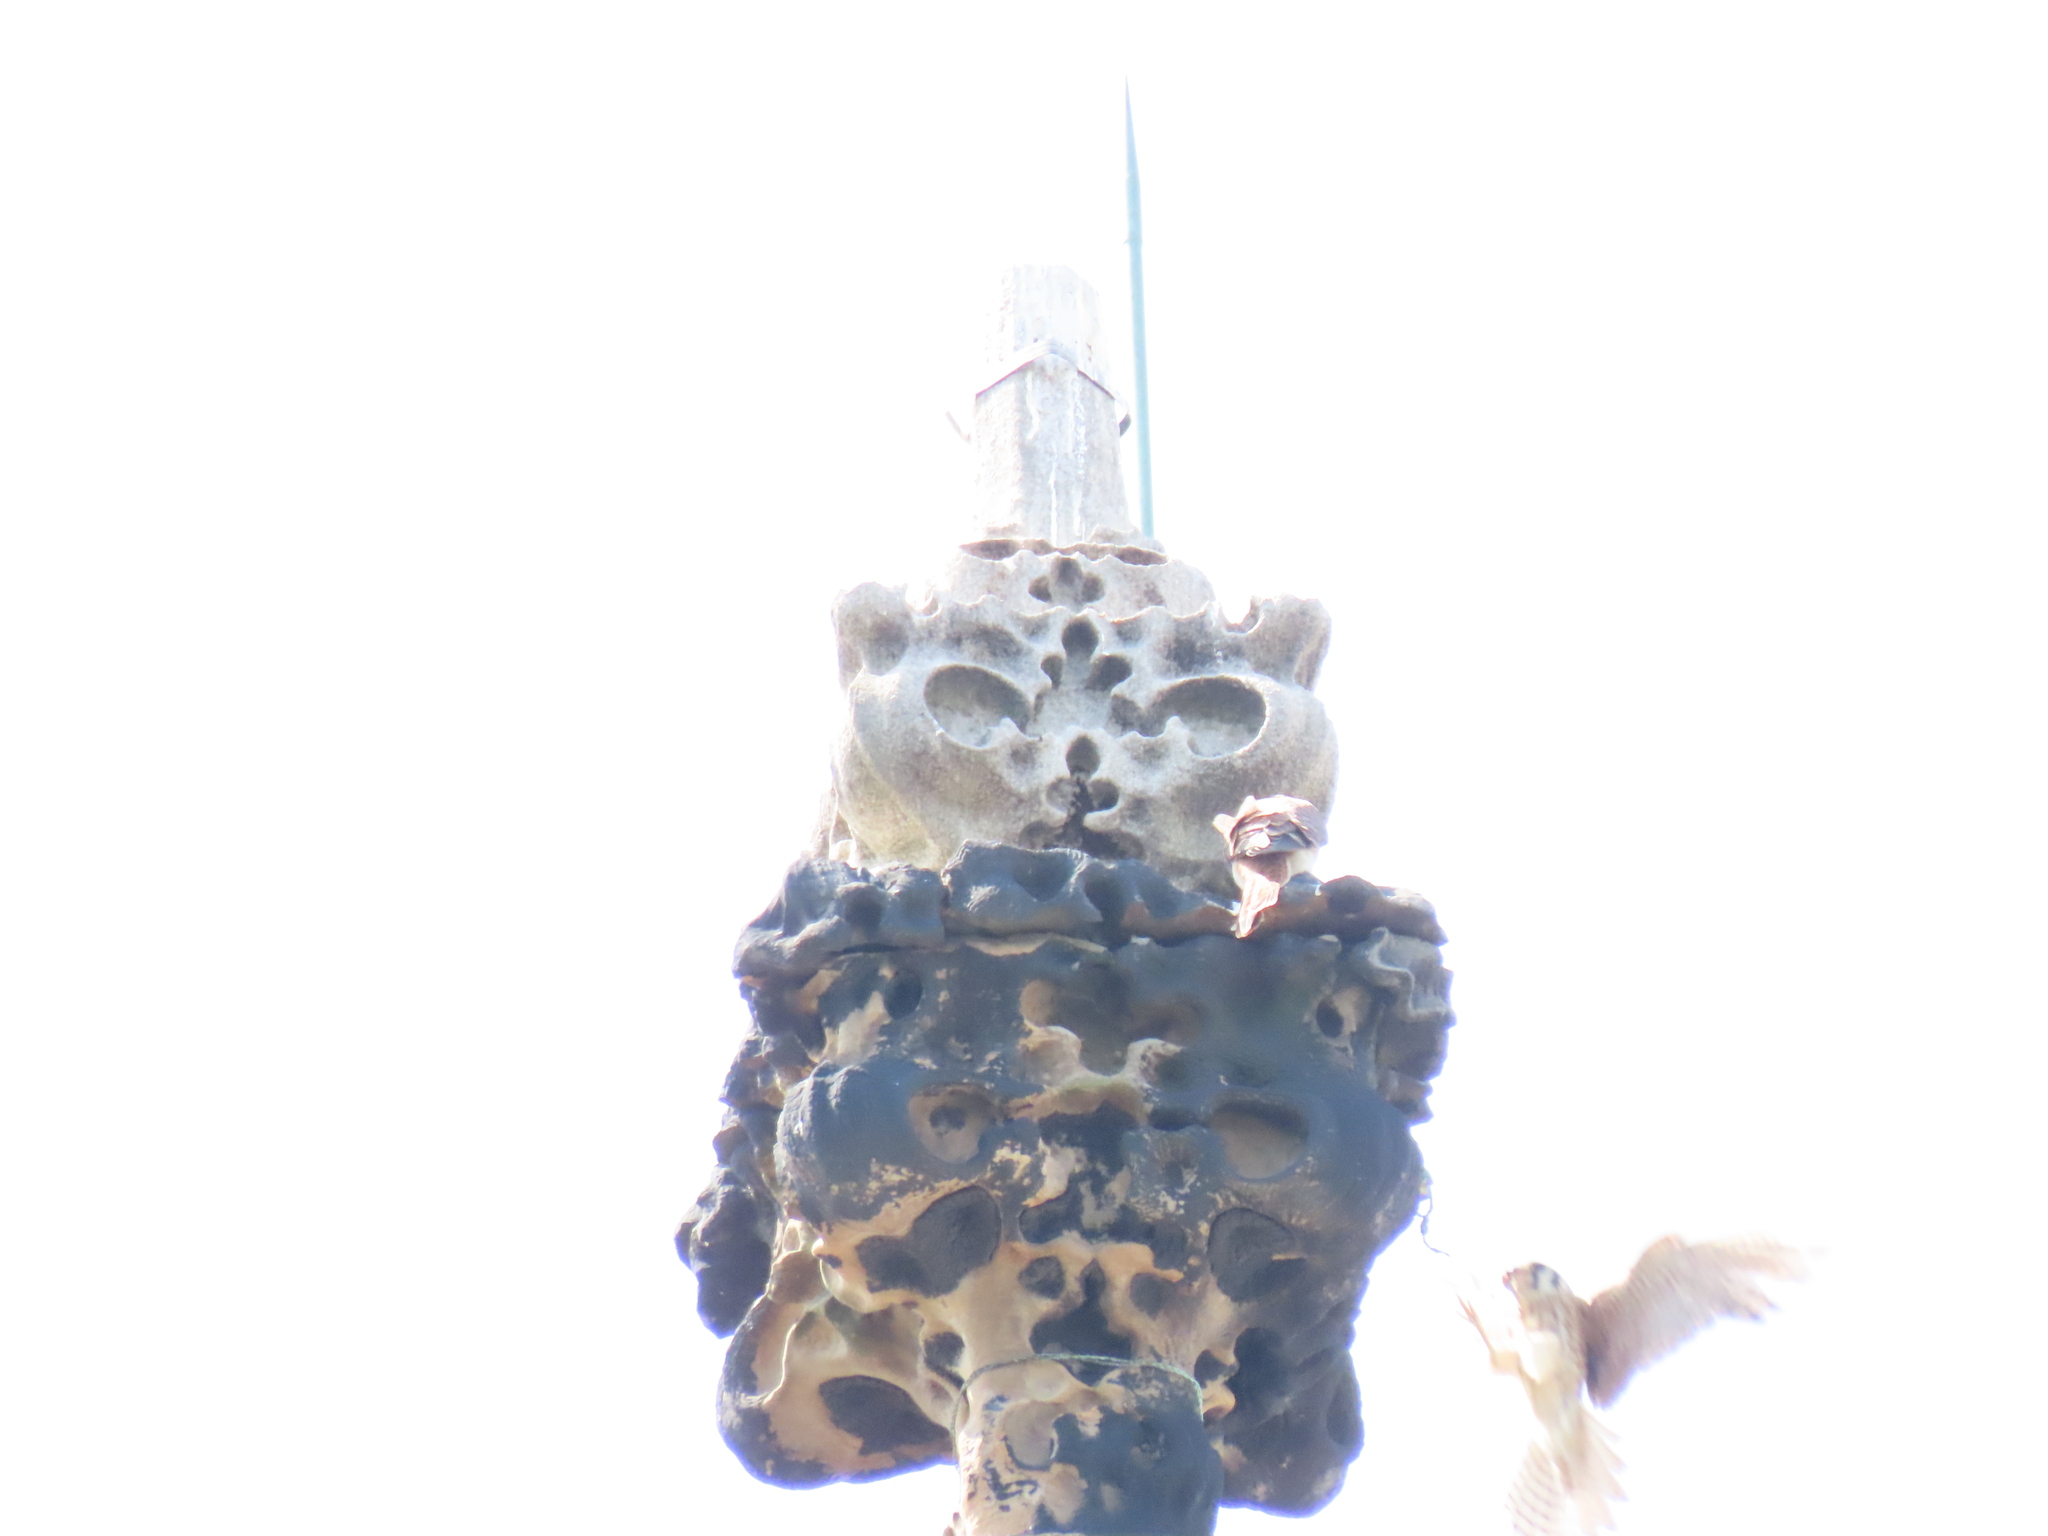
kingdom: Animalia
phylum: Chordata
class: Aves
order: Falconiformes
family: Falconidae
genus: Falco
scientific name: Falco sparverius
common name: American kestrel
